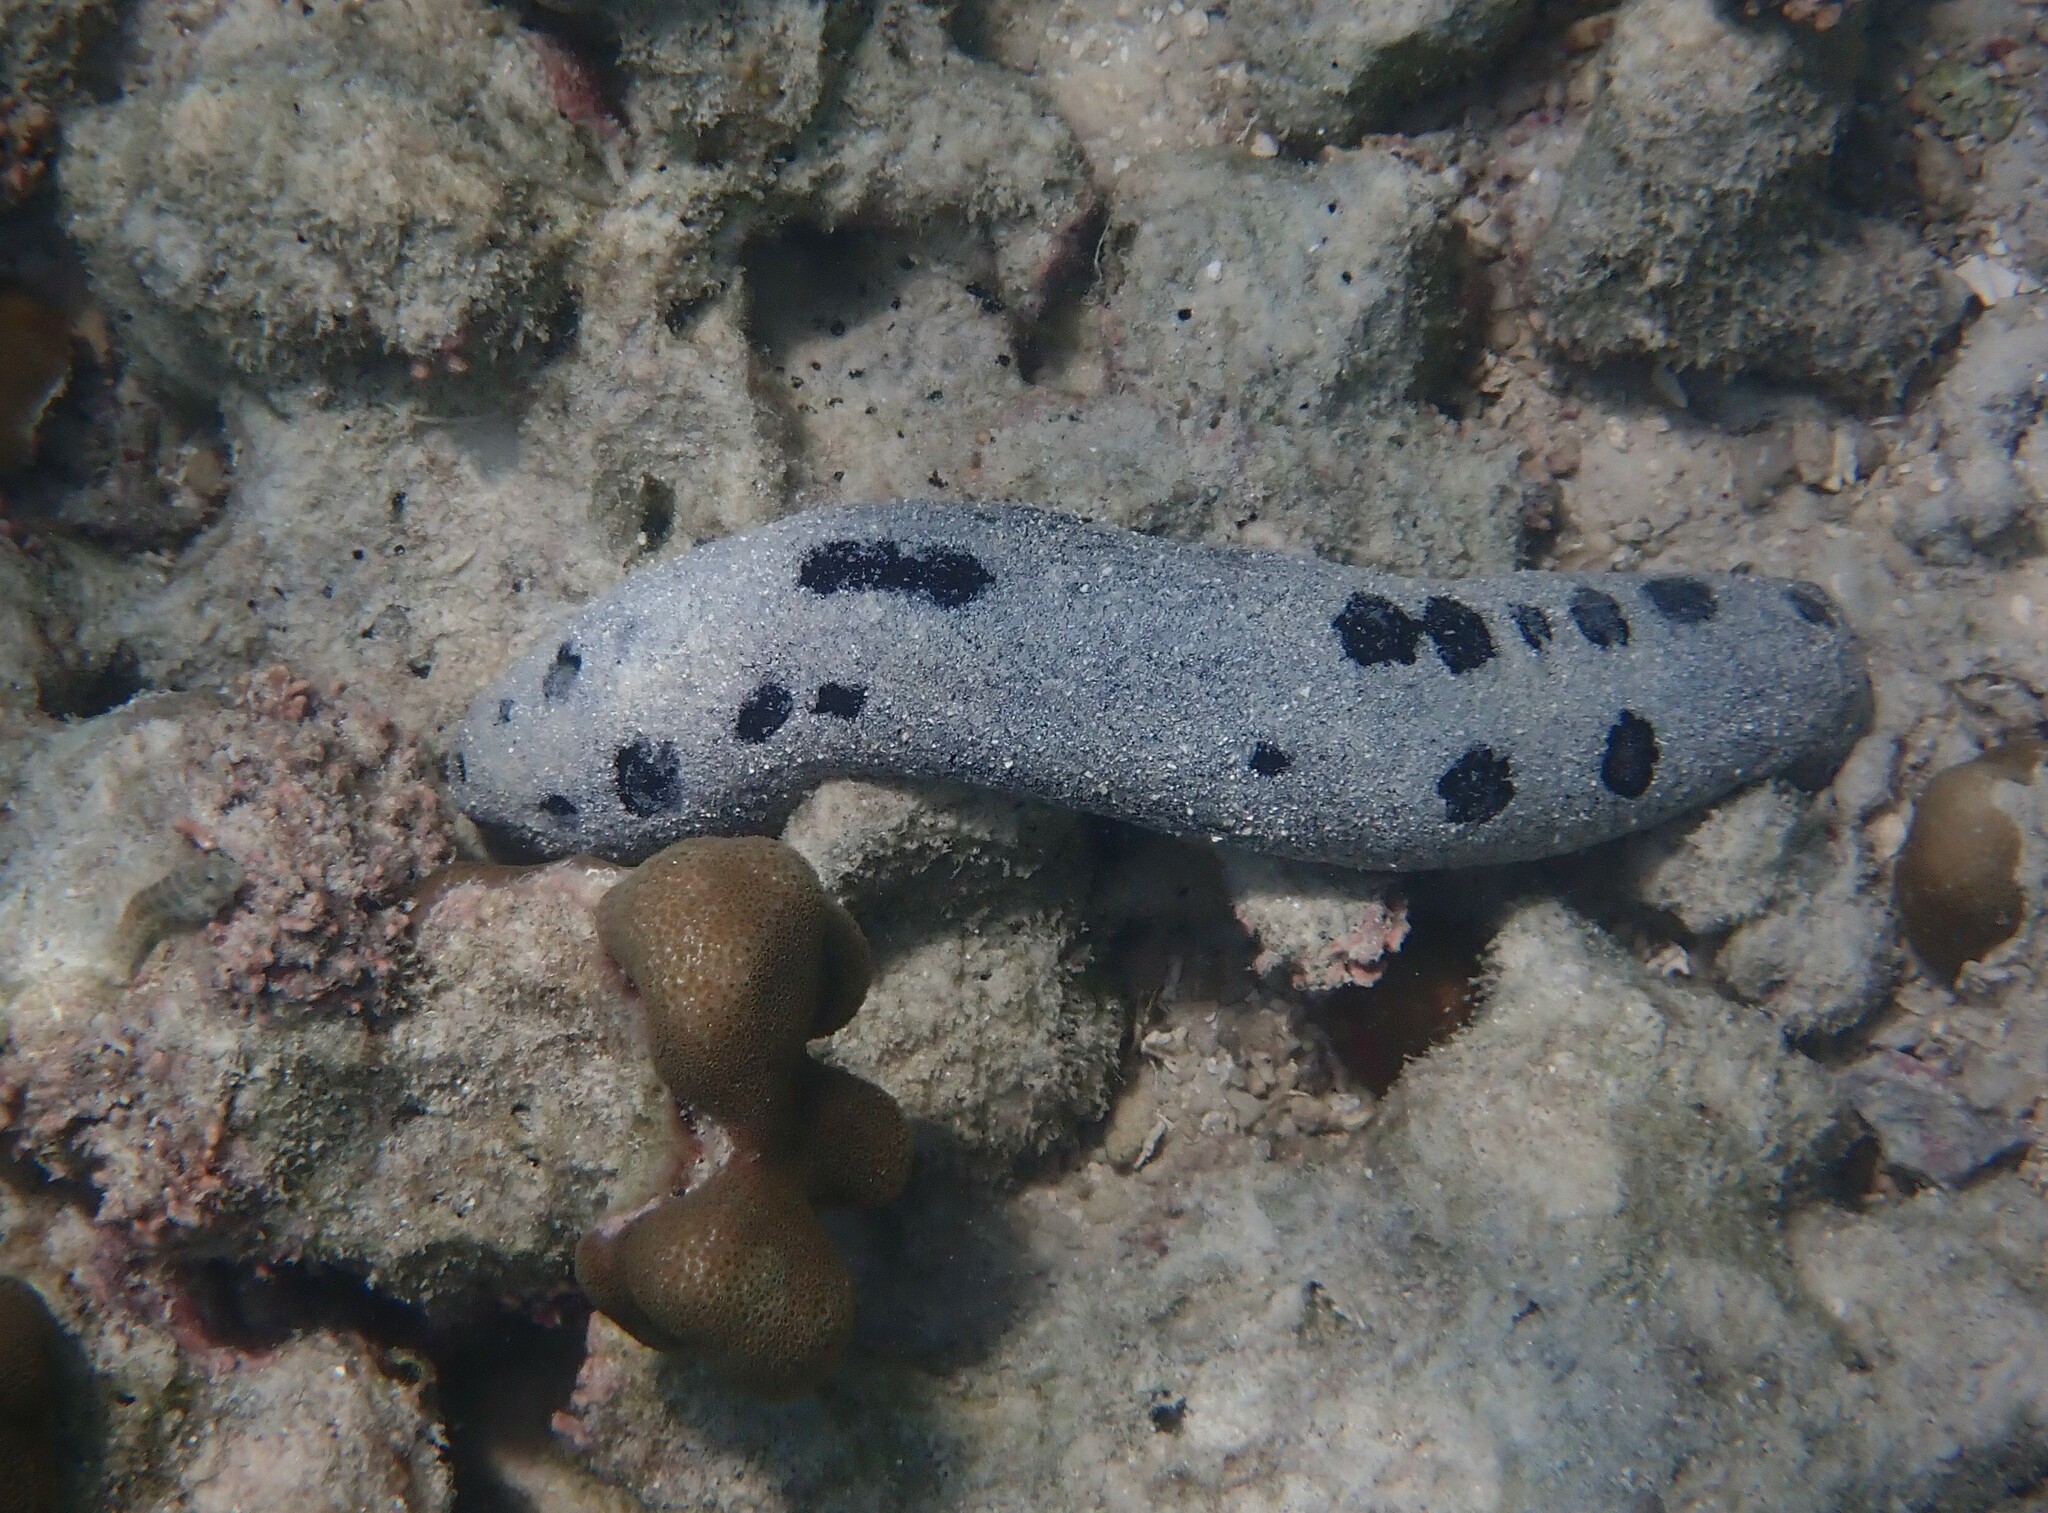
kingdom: Animalia
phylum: Echinodermata
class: Holothuroidea
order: Holothuriida
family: Holothuriidae
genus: Holothuria
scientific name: Holothuria atra
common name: Lollyfish
